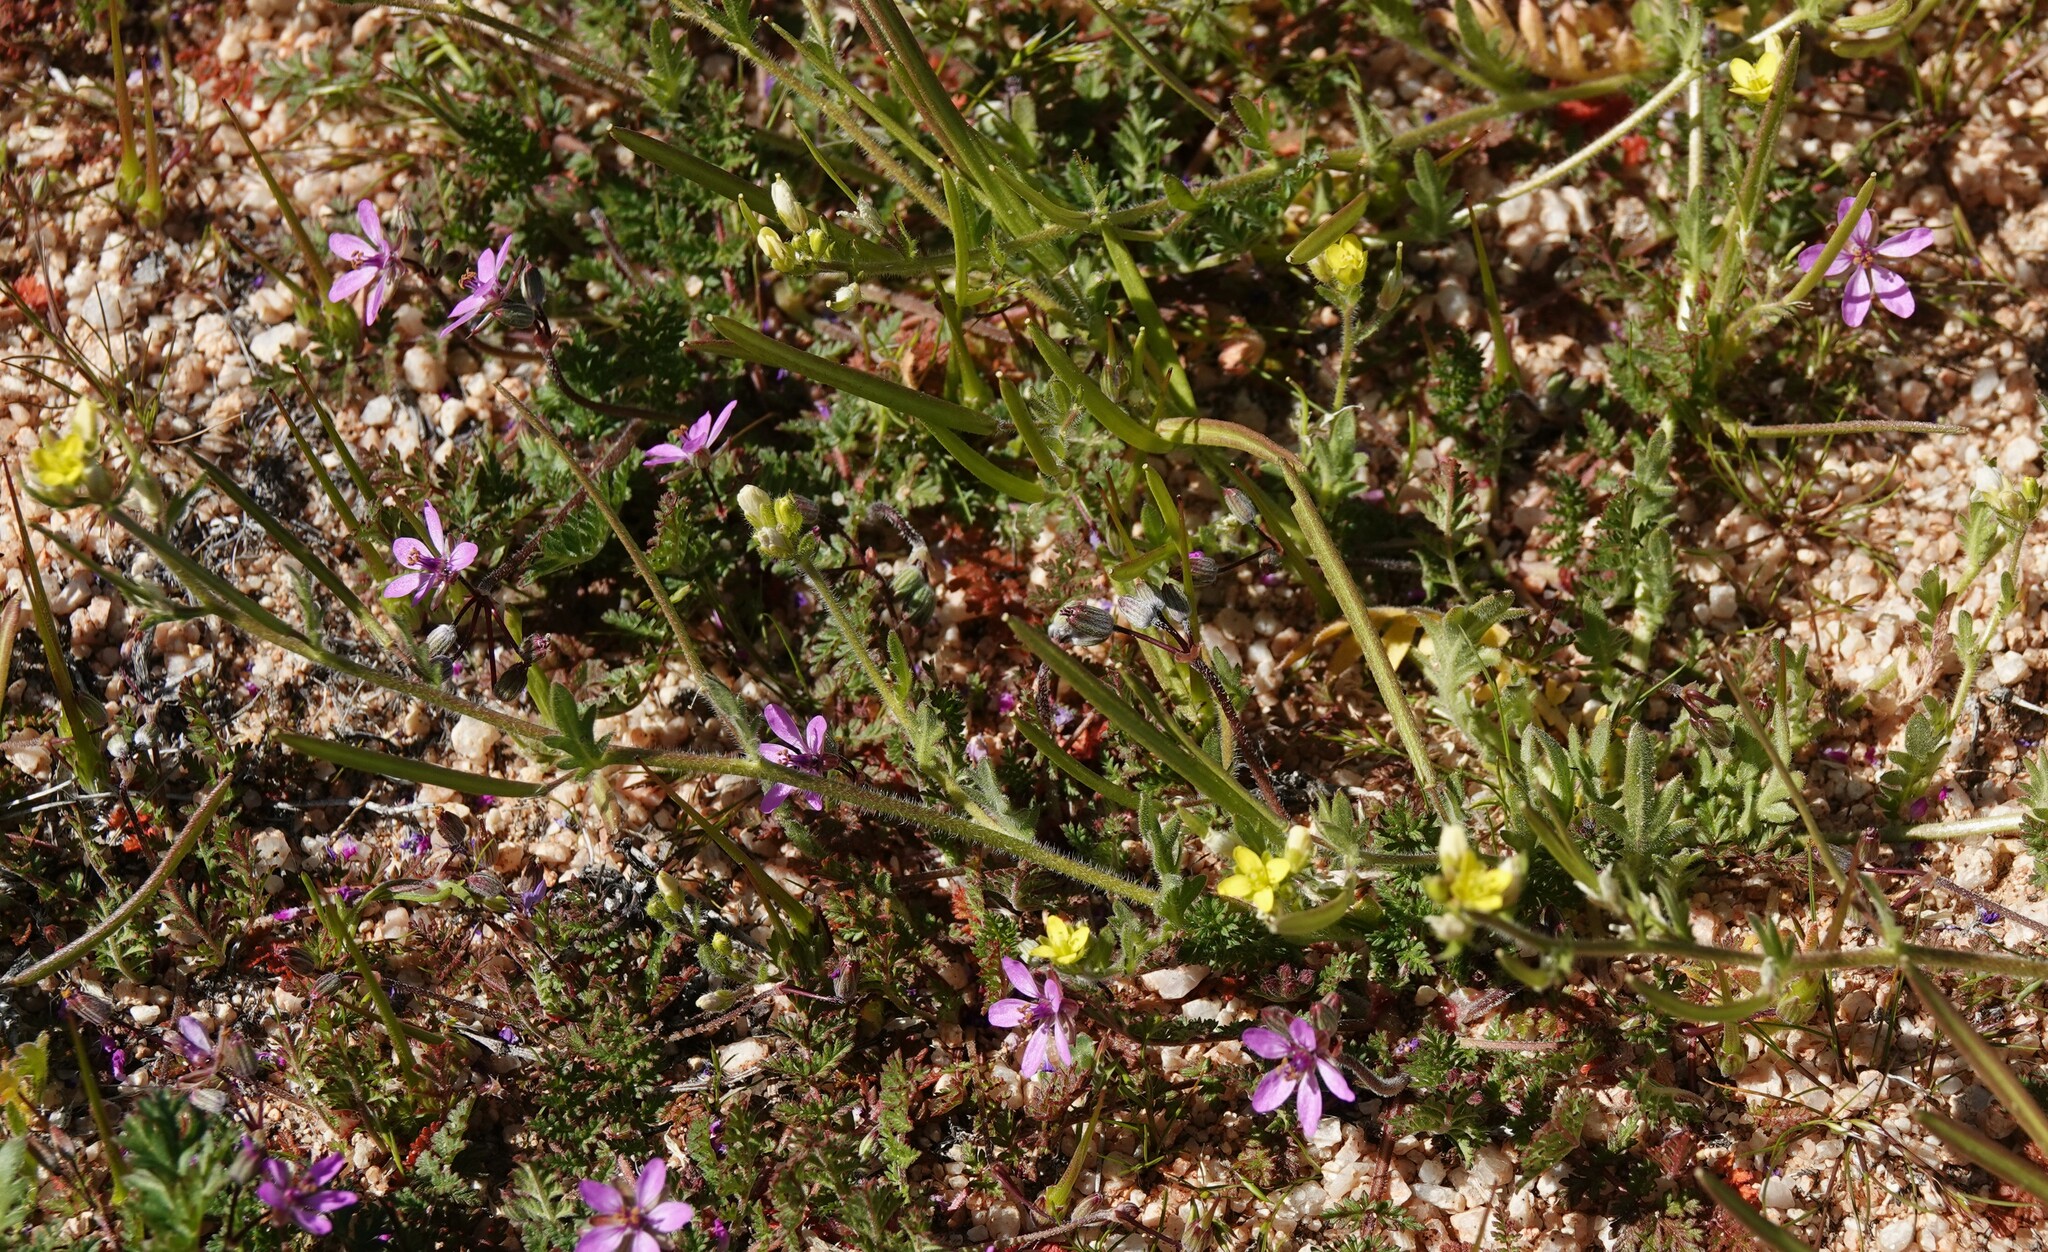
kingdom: Plantae
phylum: Tracheophyta
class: Magnoliopsida
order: Brassicales
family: Brassicaceae
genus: Tropidocarpum
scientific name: Tropidocarpum gracile
